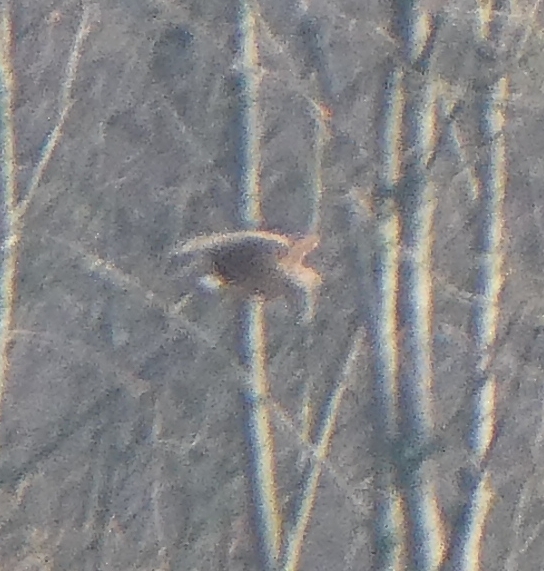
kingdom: Animalia
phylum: Chordata
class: Aves
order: Accipitriformes
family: Accipitridae
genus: Circus
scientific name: Circus cyaneus
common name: Hen harrier
